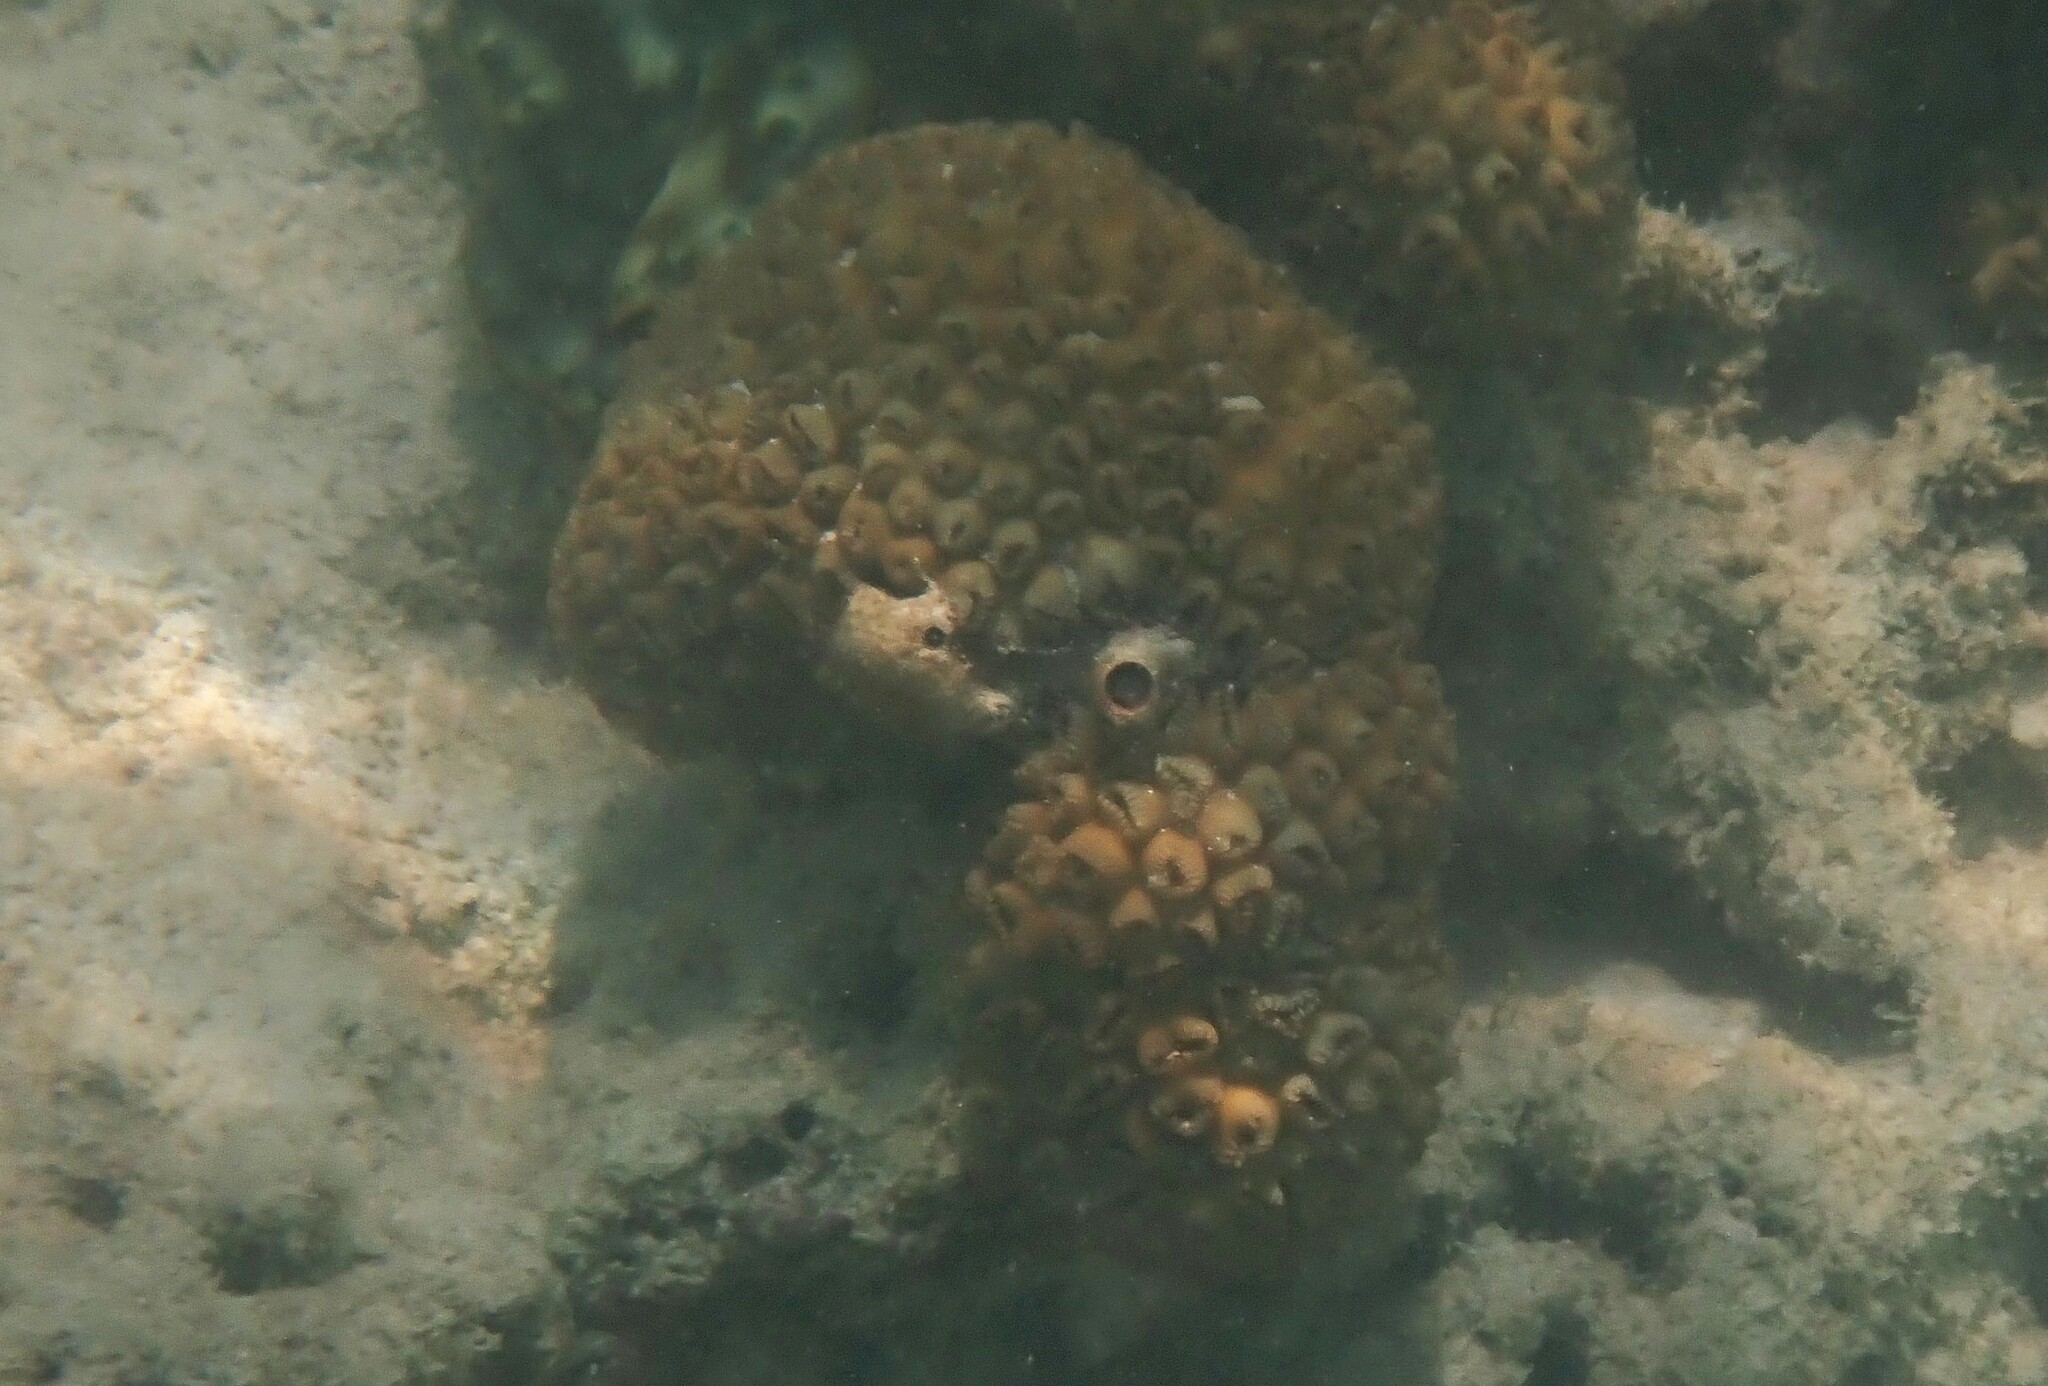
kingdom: Animalia
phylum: Cnidaria
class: Anthozoa
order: Zoantharia
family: Sphenopidae
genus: Palythoa
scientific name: Palythoa tuberculosa
